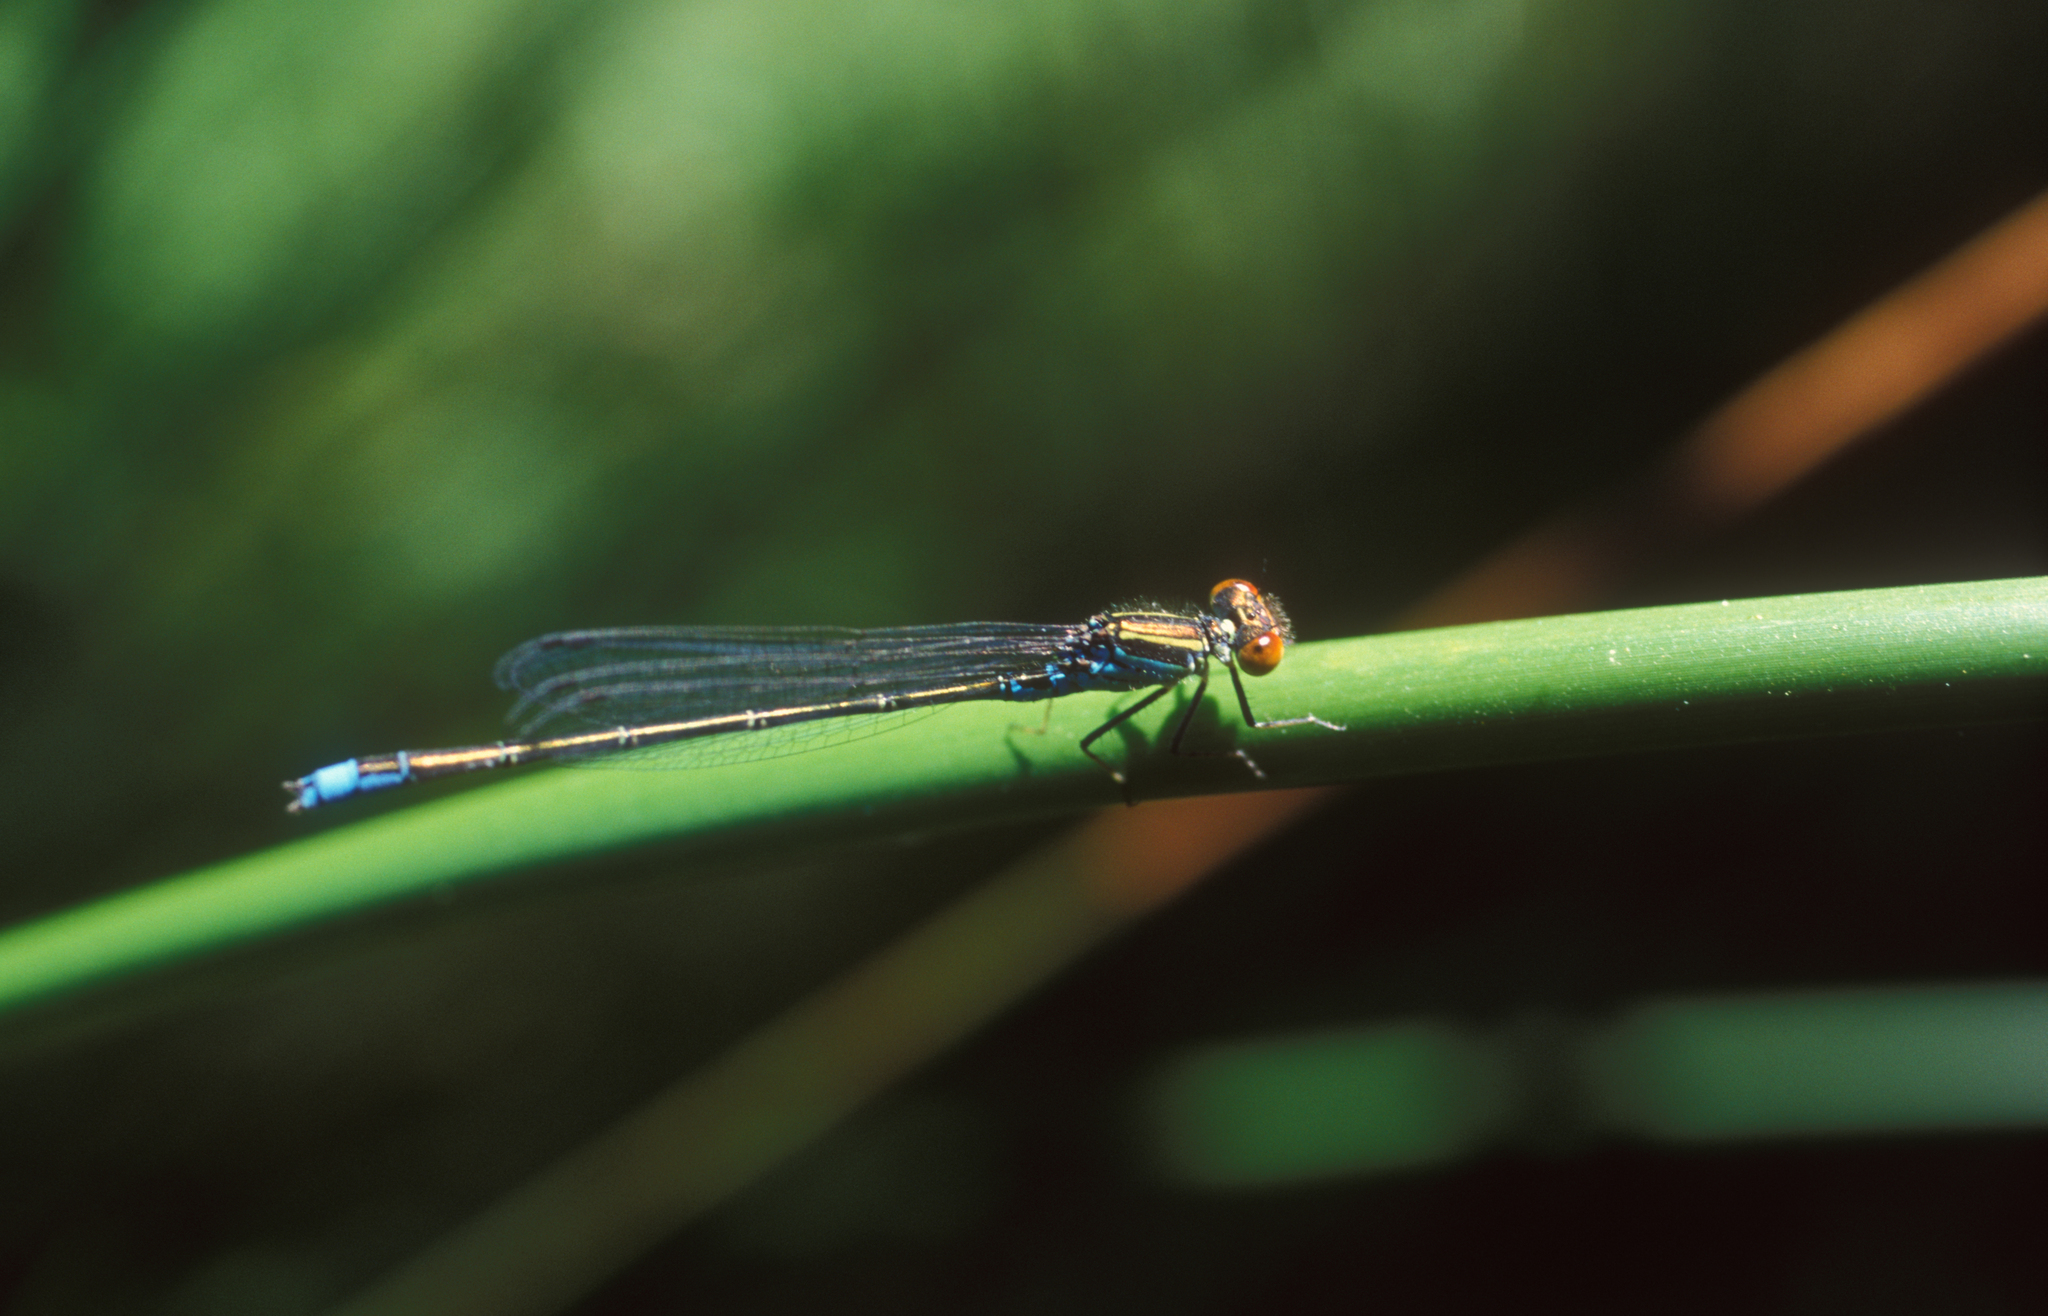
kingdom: Animalia
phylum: Arthropoda
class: Insecta
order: Odonata
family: Coenagrionidae
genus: Erythromma
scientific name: Erythromma viridulum
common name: Small red-eyed damselfly
